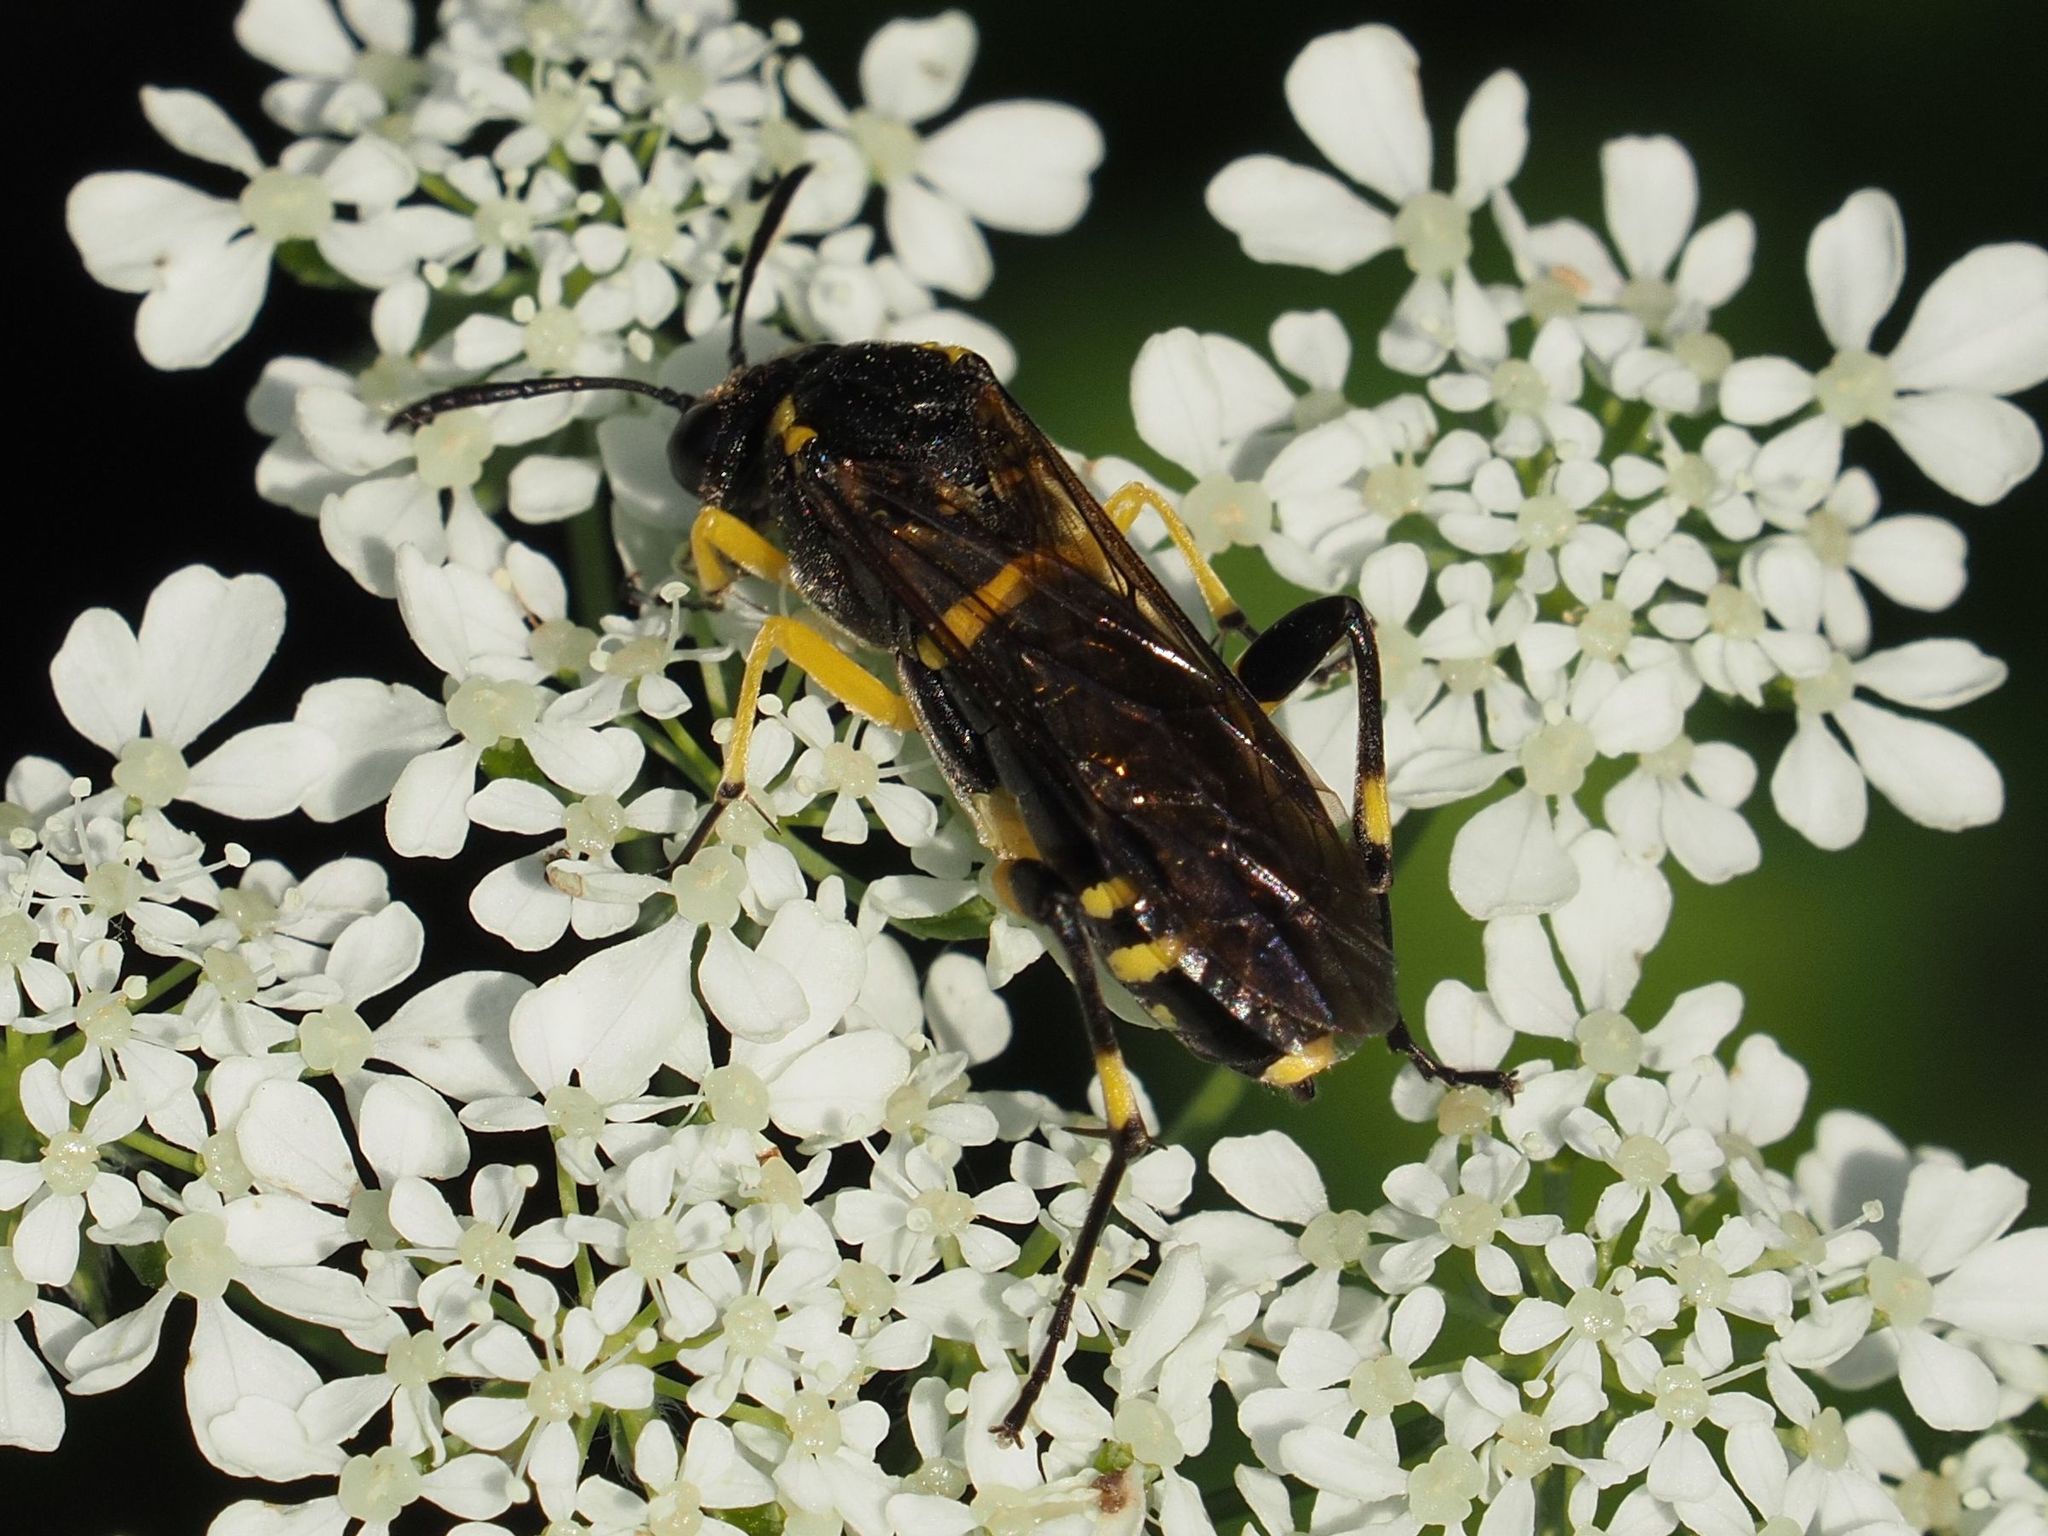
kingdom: Animalia
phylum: Arthropoda
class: Insecta
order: Hymenoptera
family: Tenthredinidae
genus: Macrophya
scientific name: Macrophya montana
